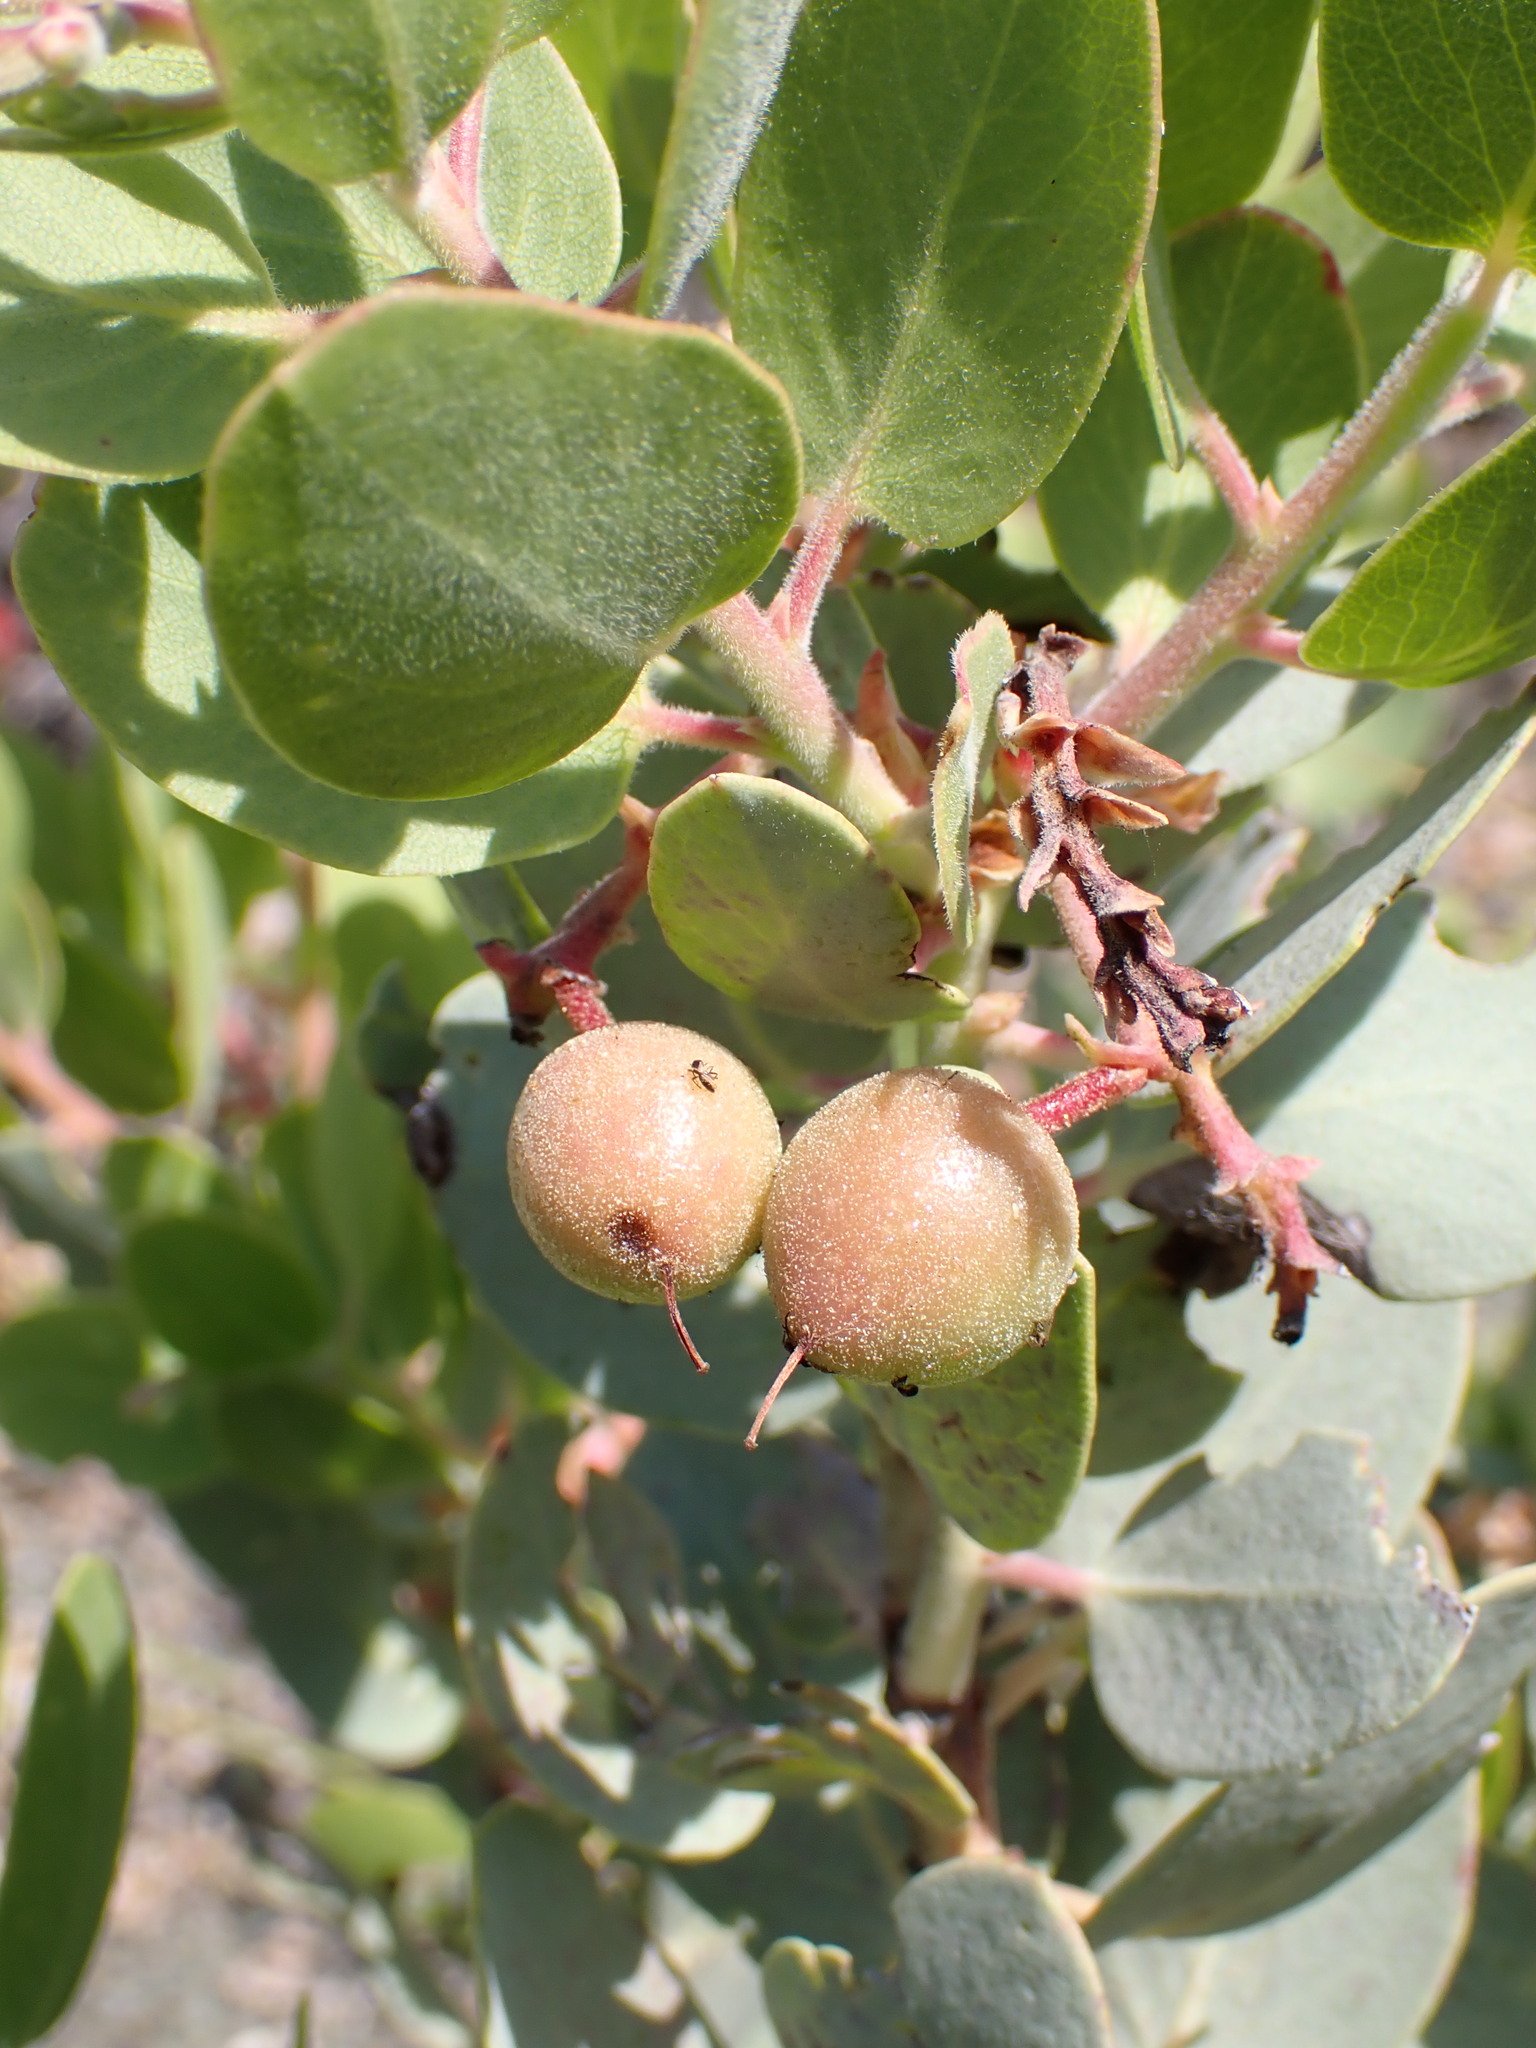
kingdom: Plantae
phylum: Tracheophyta
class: Magnoliopsida
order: Ericales
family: Ericaceae
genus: Arctostaphylos
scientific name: Arctostaphylos glauca
